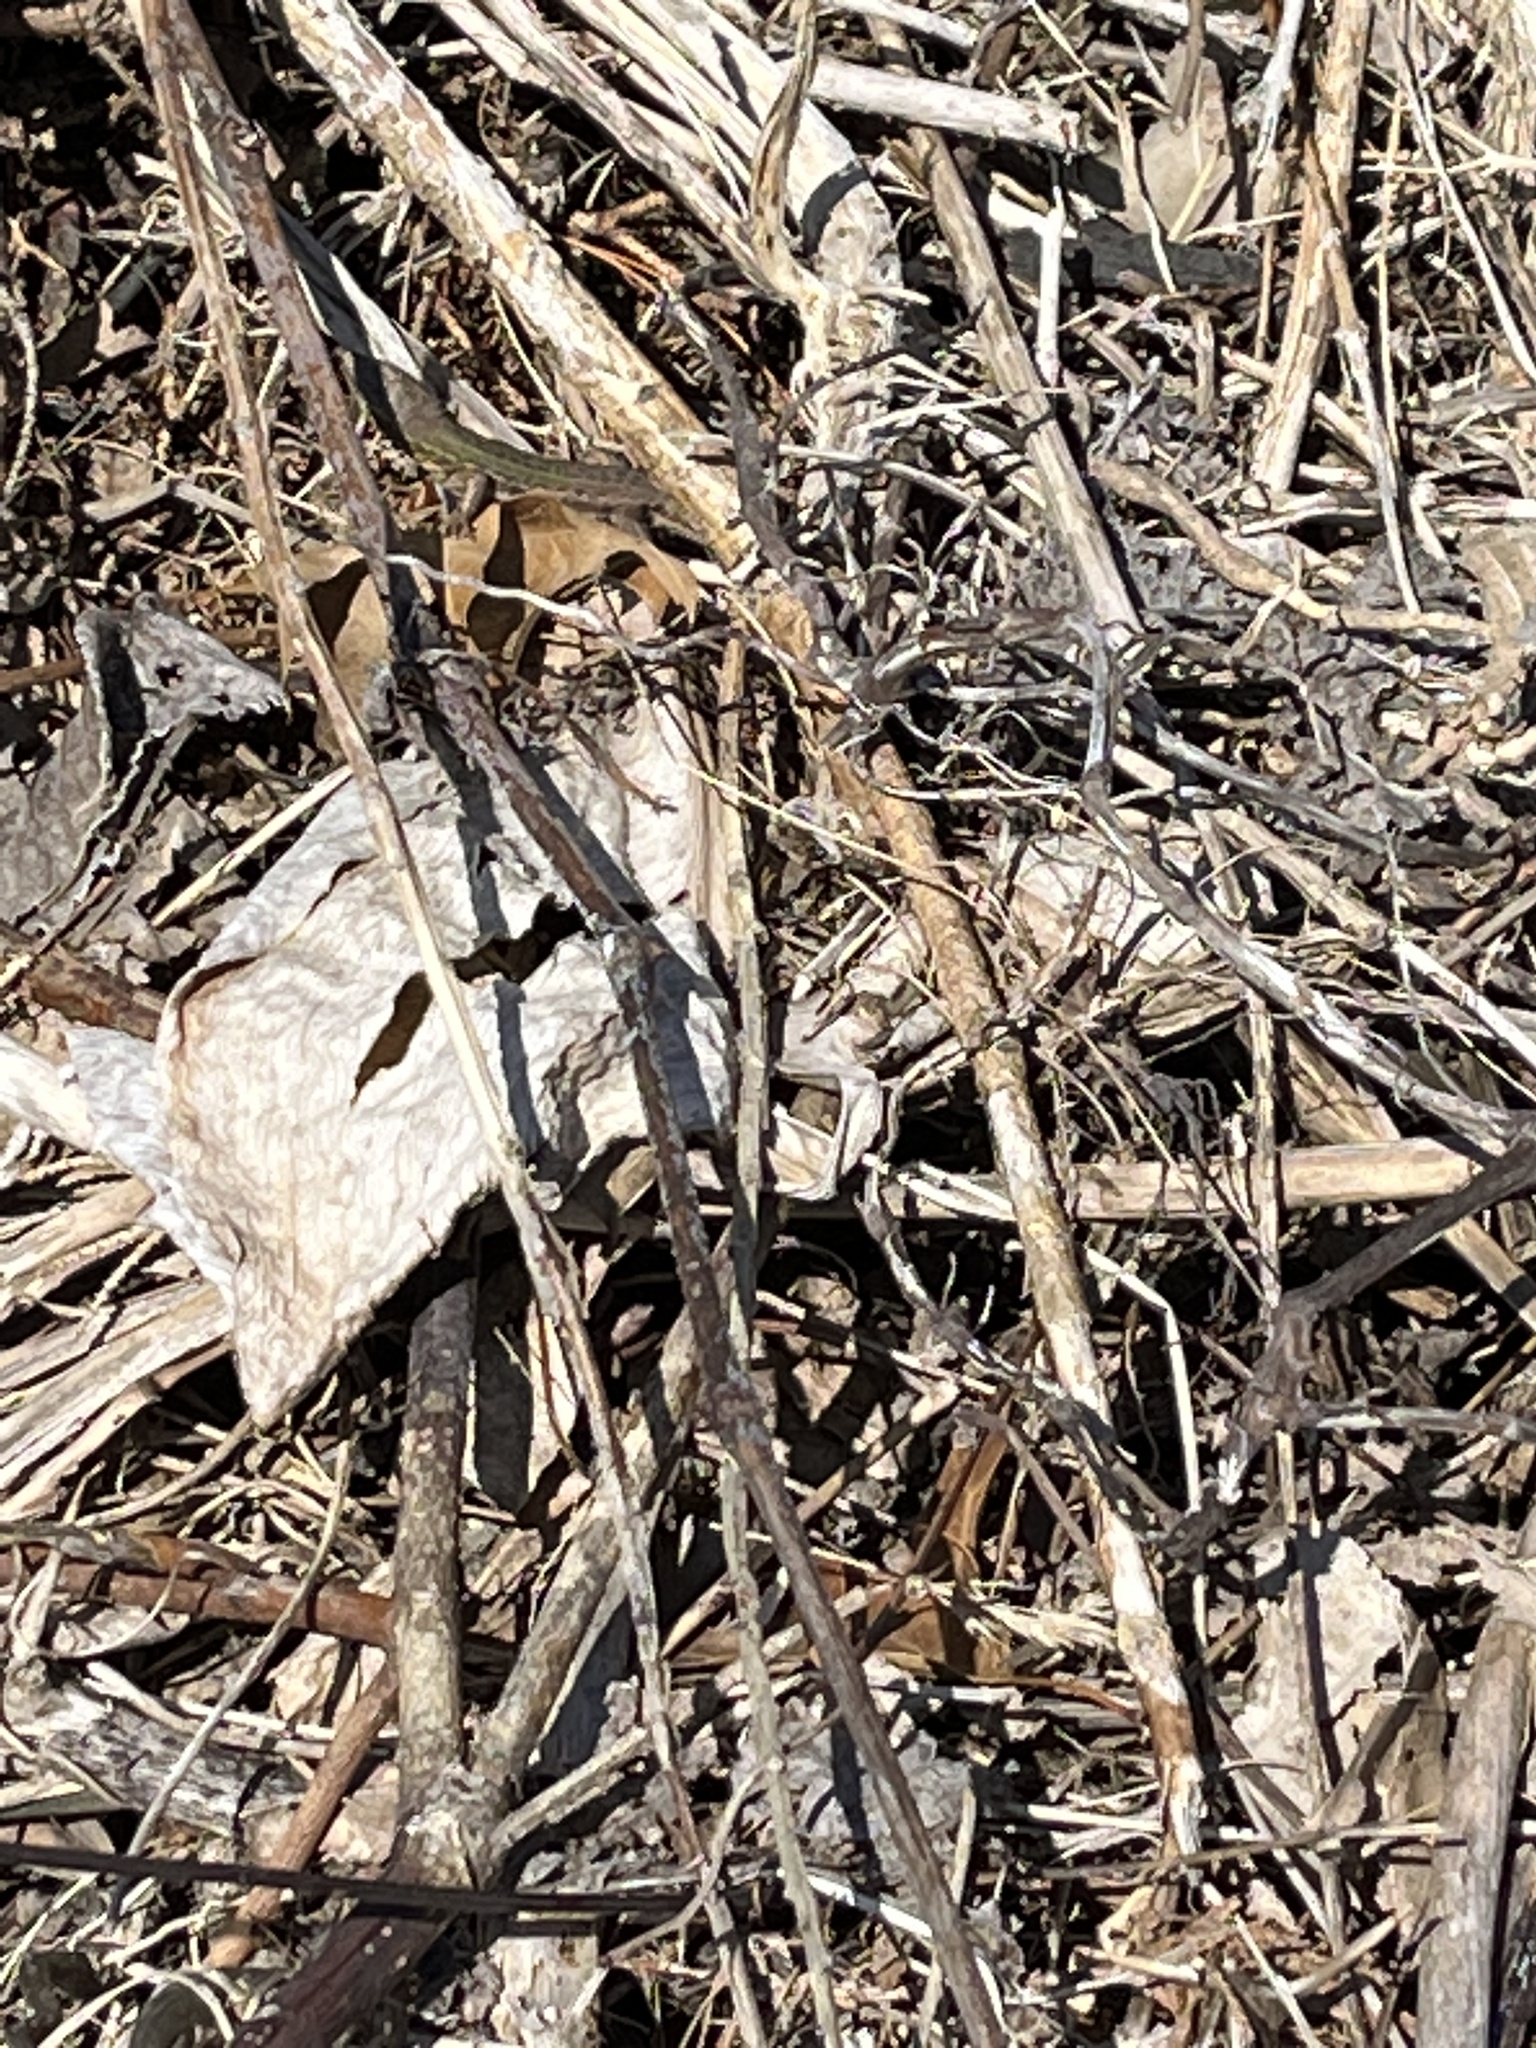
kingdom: Animalia
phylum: Chordata
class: Squamata
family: Lacertidae
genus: Podarcis
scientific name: Podarcis siculus
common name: Italian wall lizard
